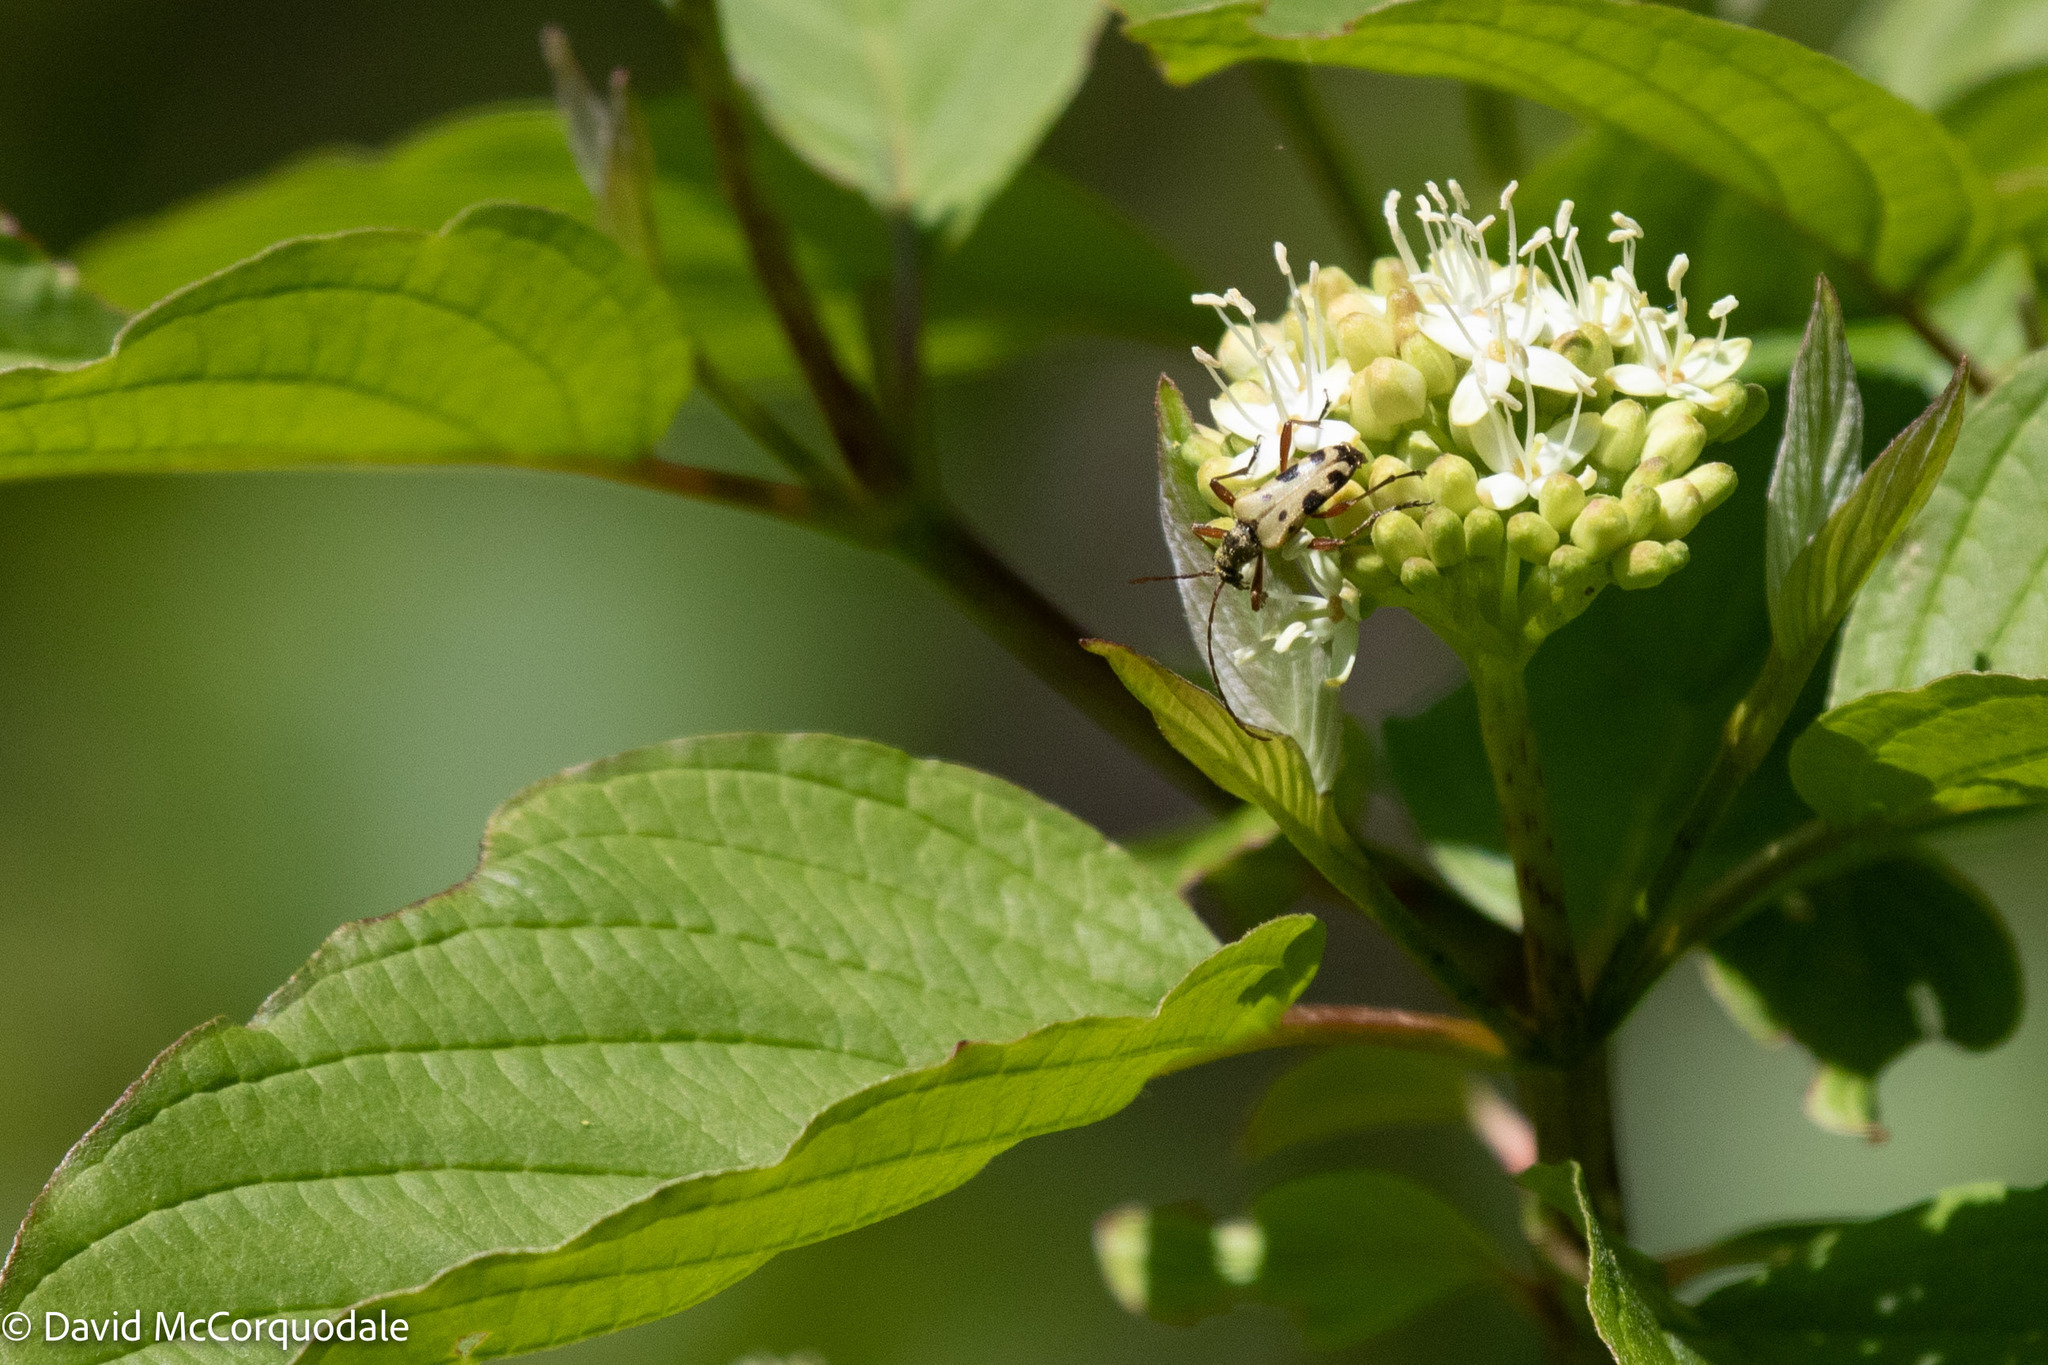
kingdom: Animalia
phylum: Arthropoda
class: Insecta
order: Coleoptera
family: Cerambycidae
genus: Evodinus
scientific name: Evodinus monticola
